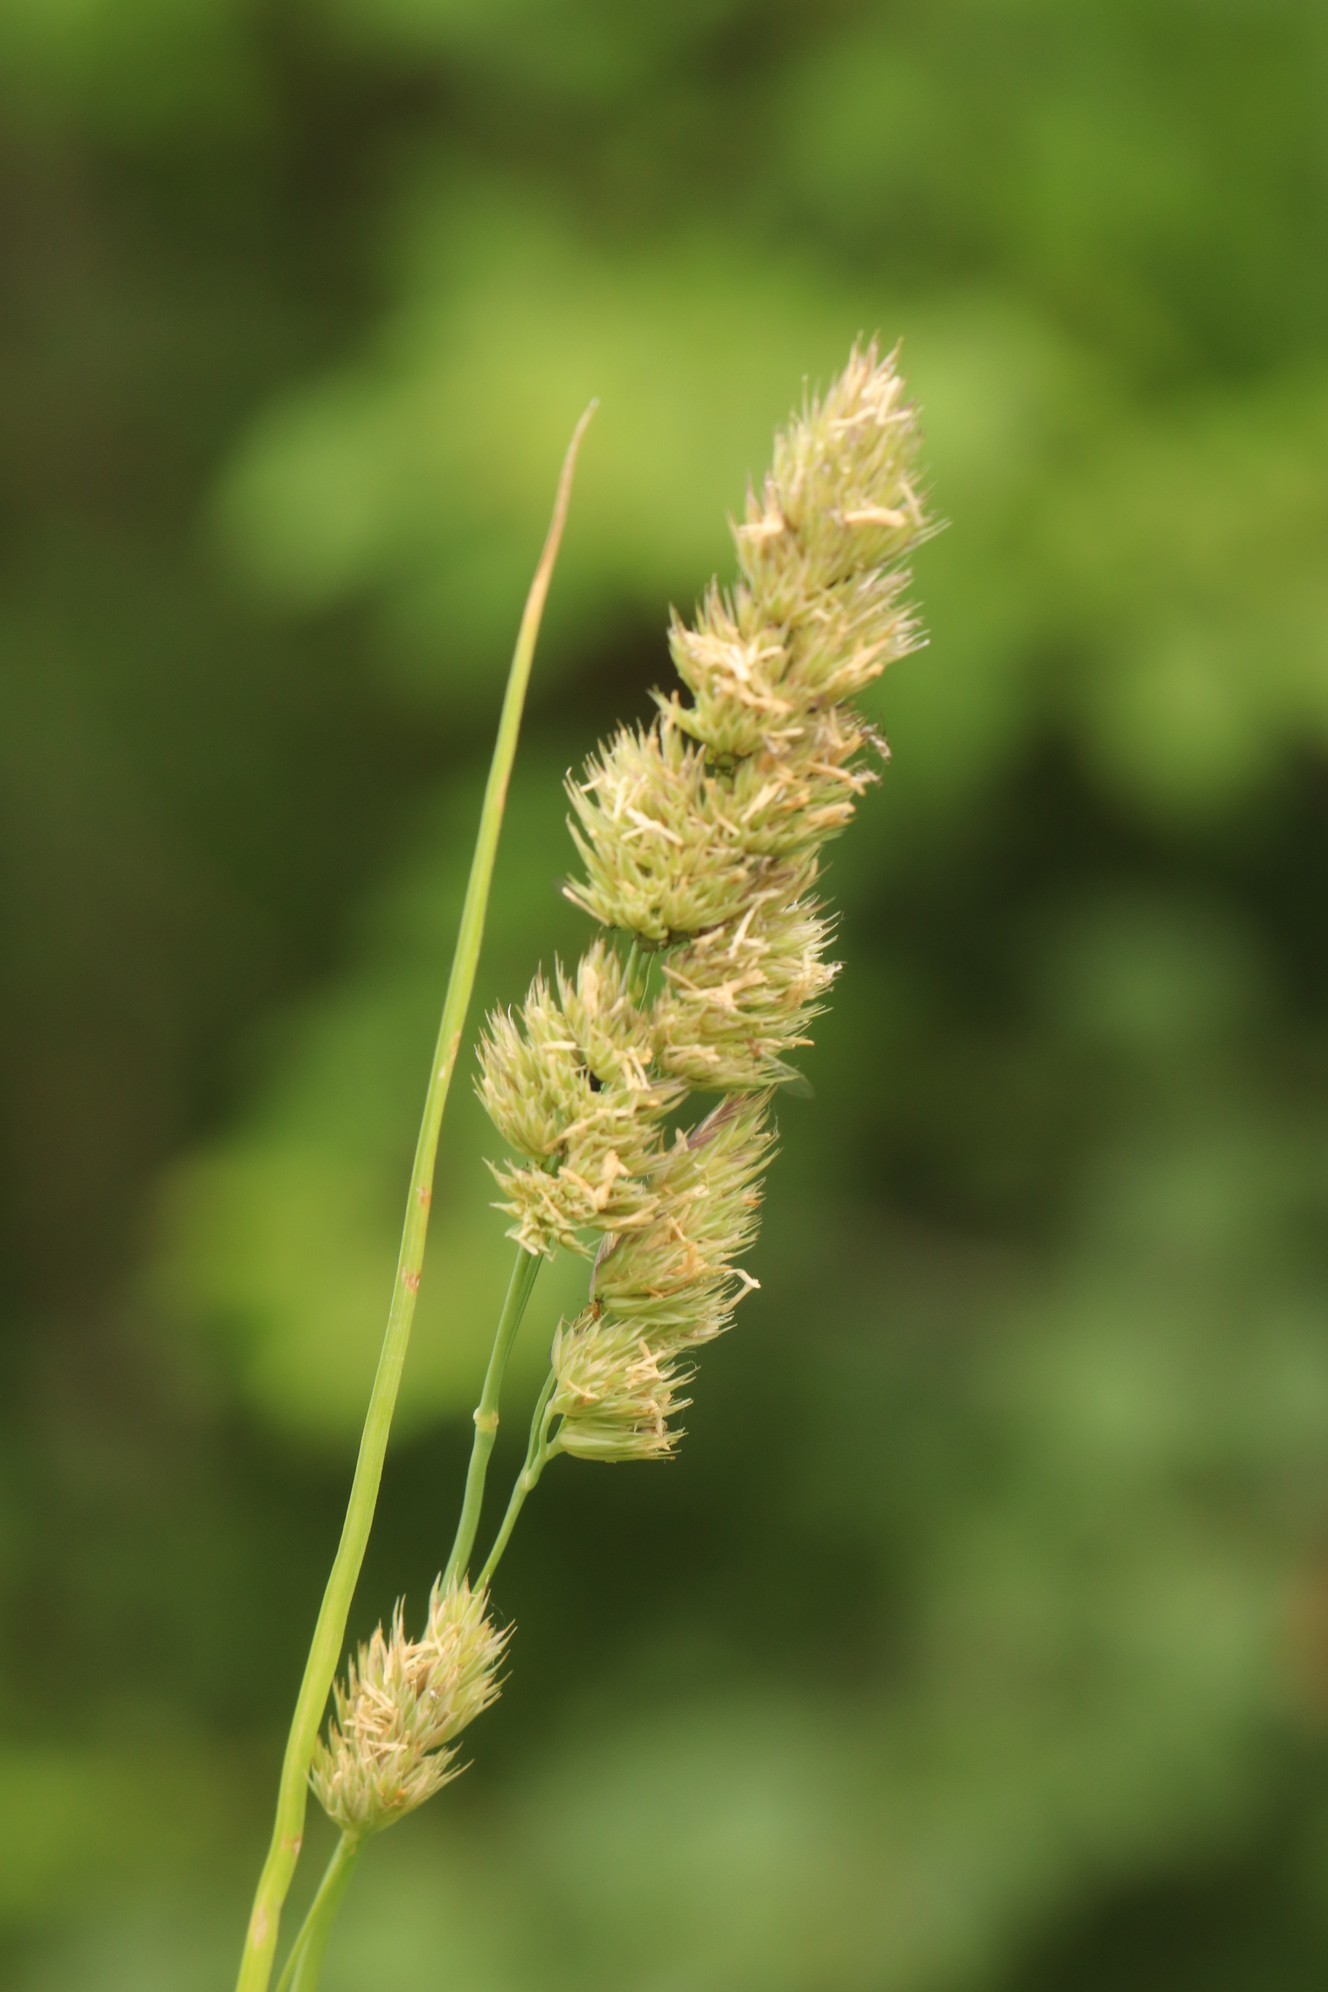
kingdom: Plantae
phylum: Tracheophyta
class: Liliopsida
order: Poales
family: Poaceae
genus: Dactylis
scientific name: Dactylis glomerata
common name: Orchardgrass
